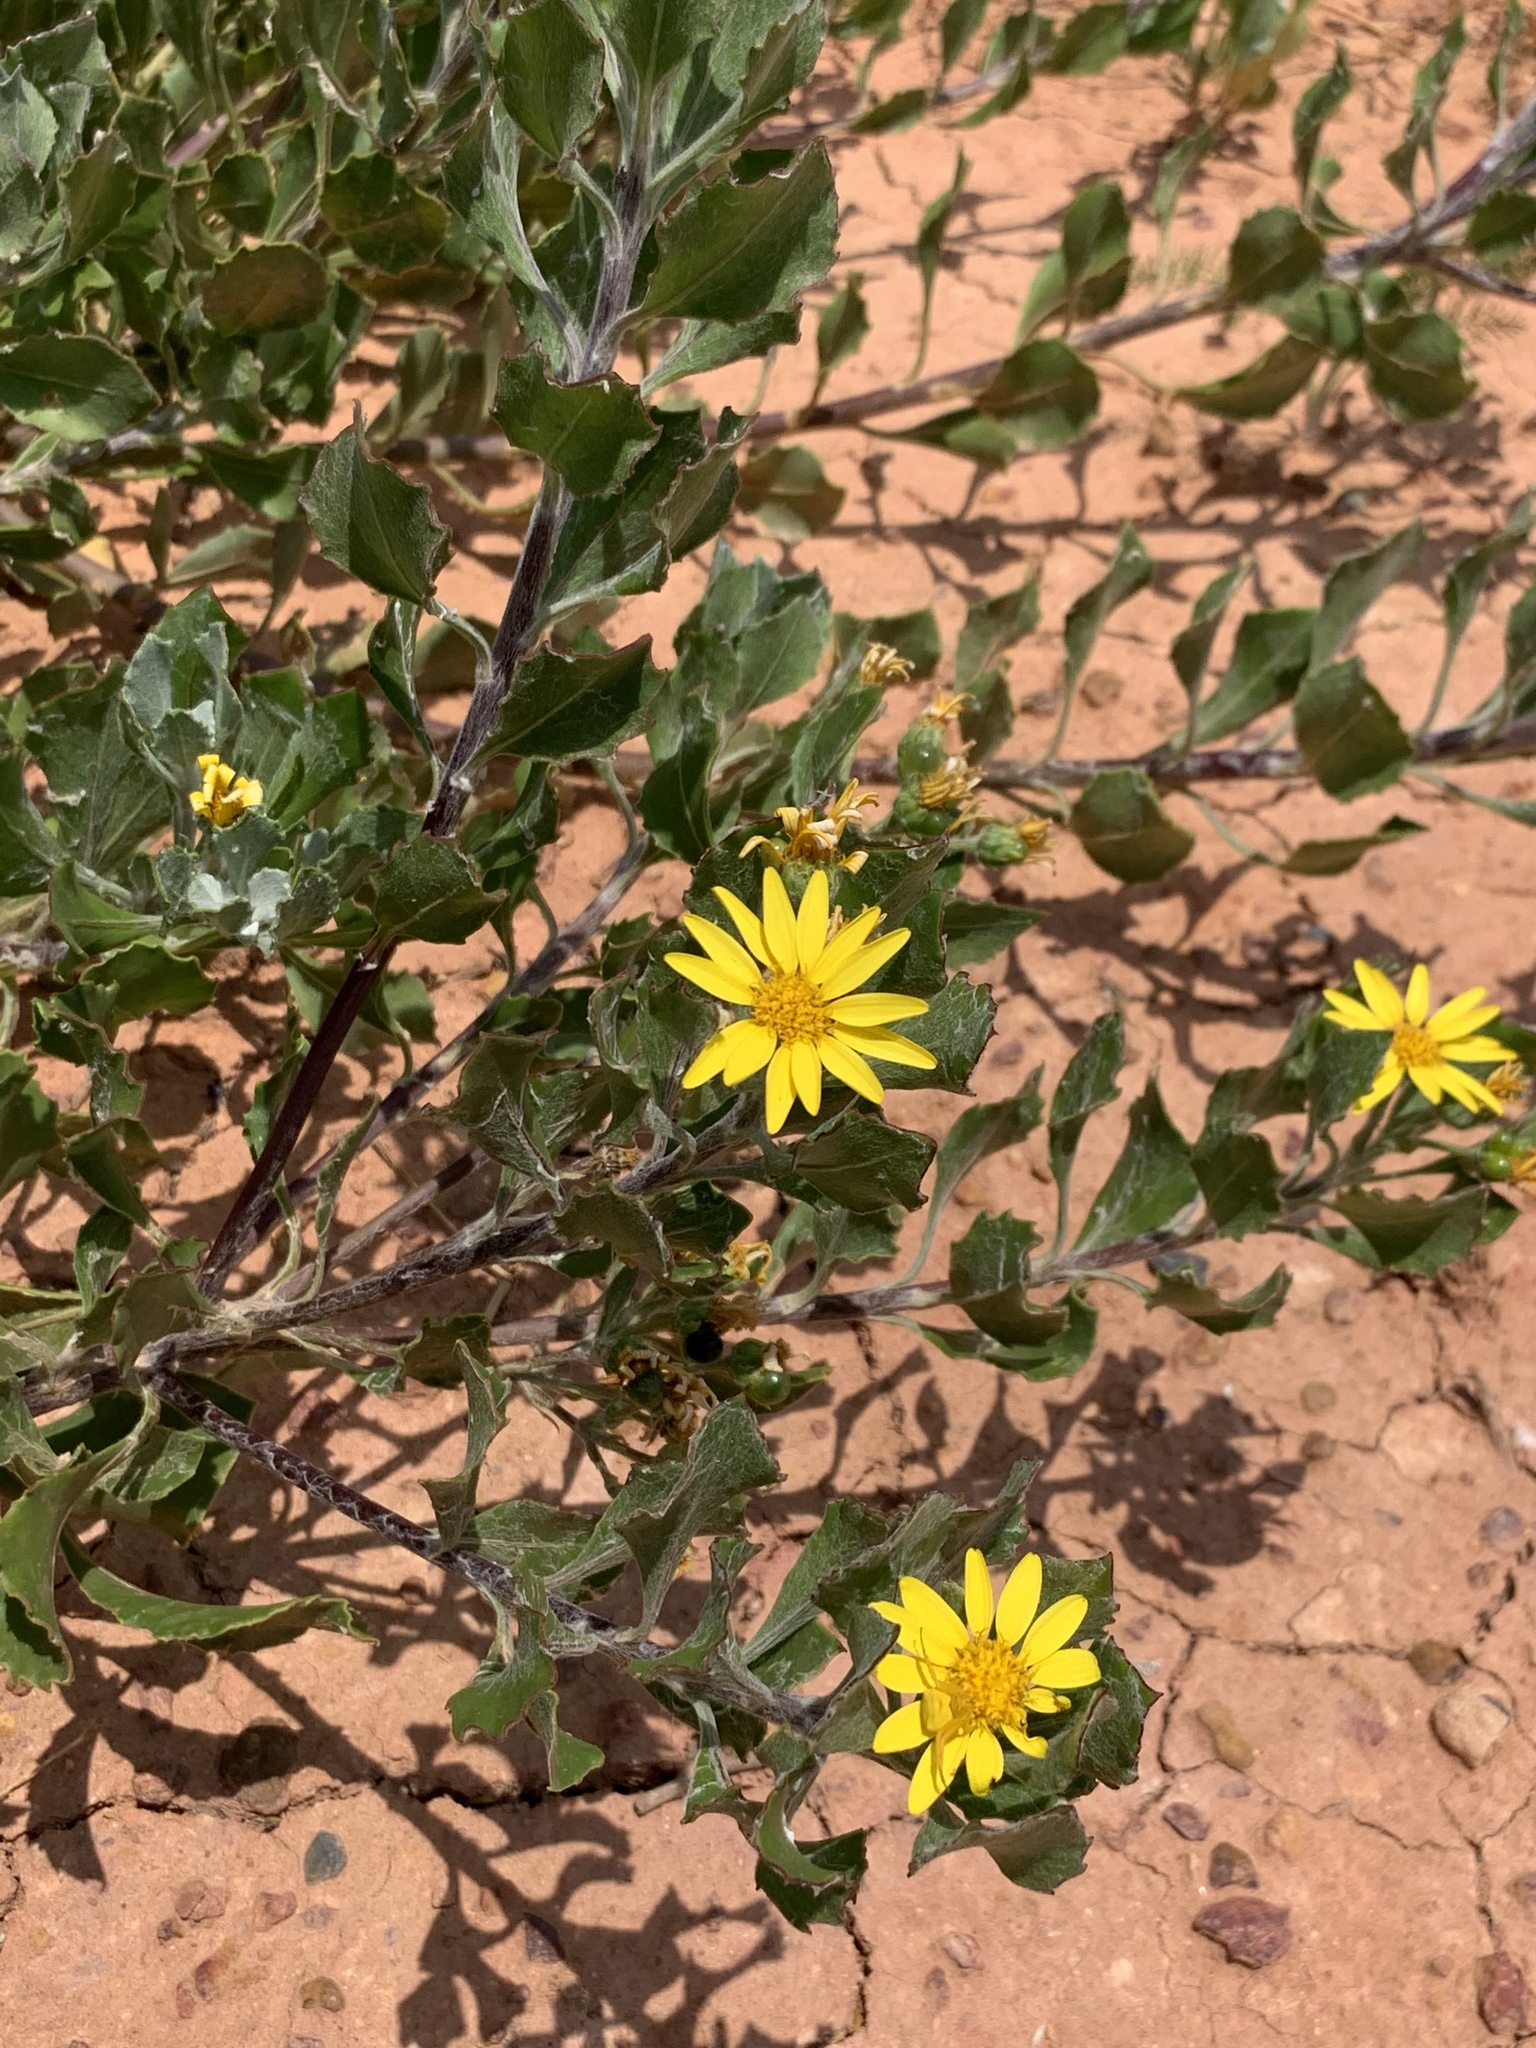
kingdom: Plantae
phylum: Tracheophyta
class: Magnoliopsida
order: Asterales
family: Asteraceae
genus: Osteospermum
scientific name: Osteospermum moniliferum
